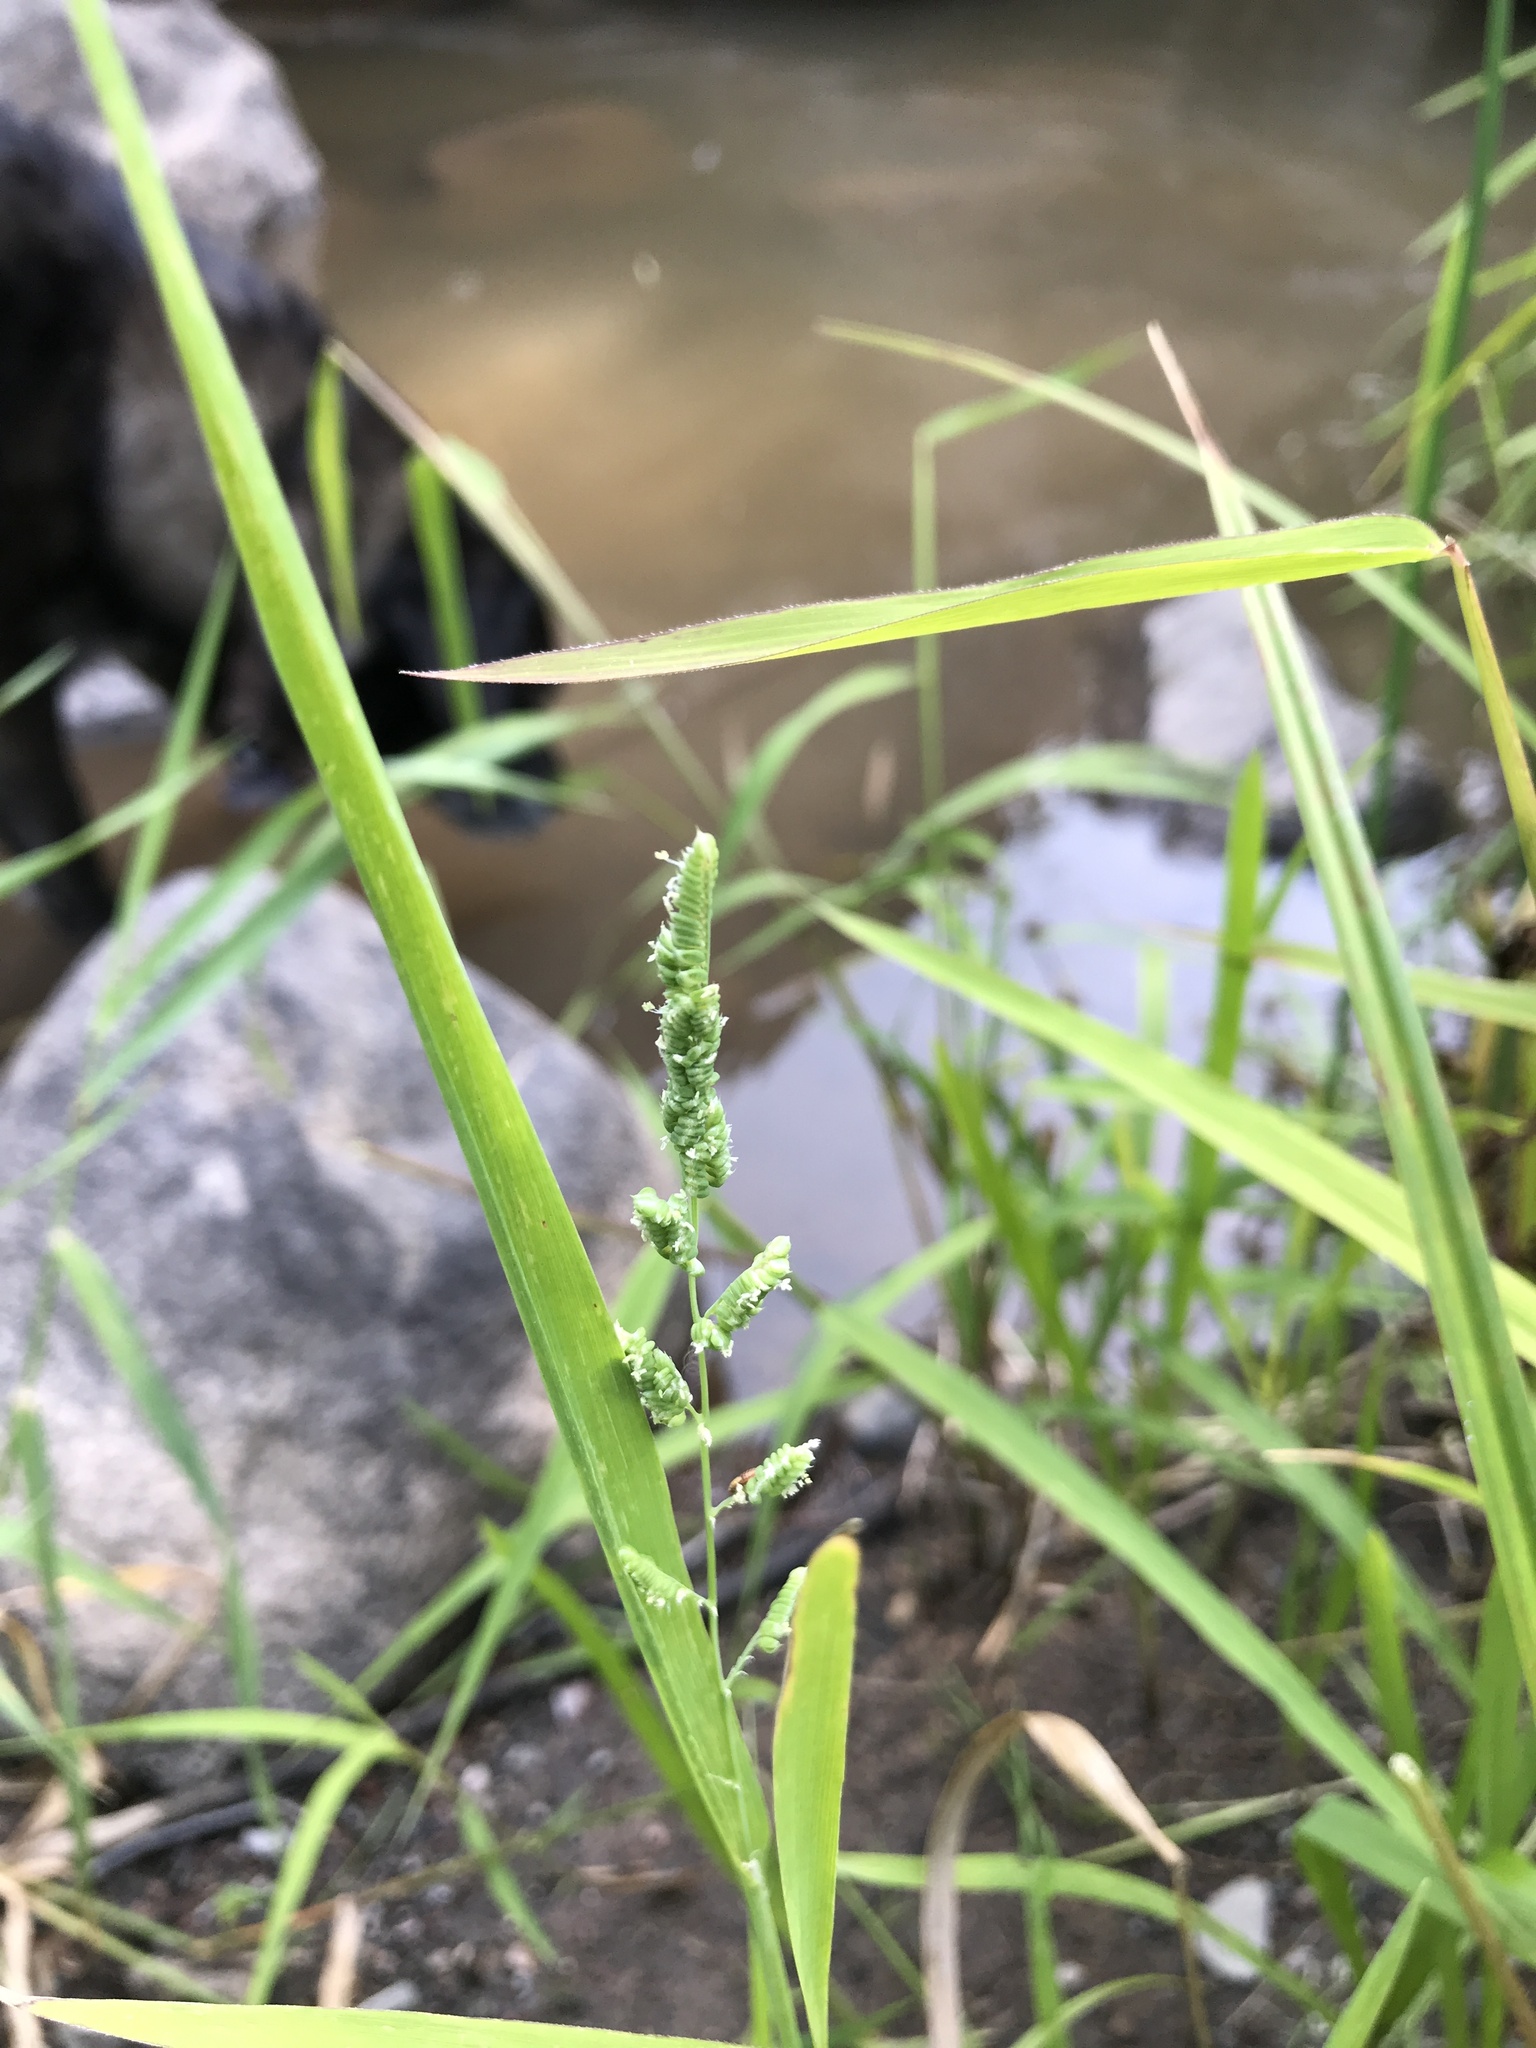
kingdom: Plantae
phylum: Tracheophyta
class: Liliopsida
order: Poales
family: Poaceae
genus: Leersia
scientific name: Leersia oryzoides
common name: Cut-grass
